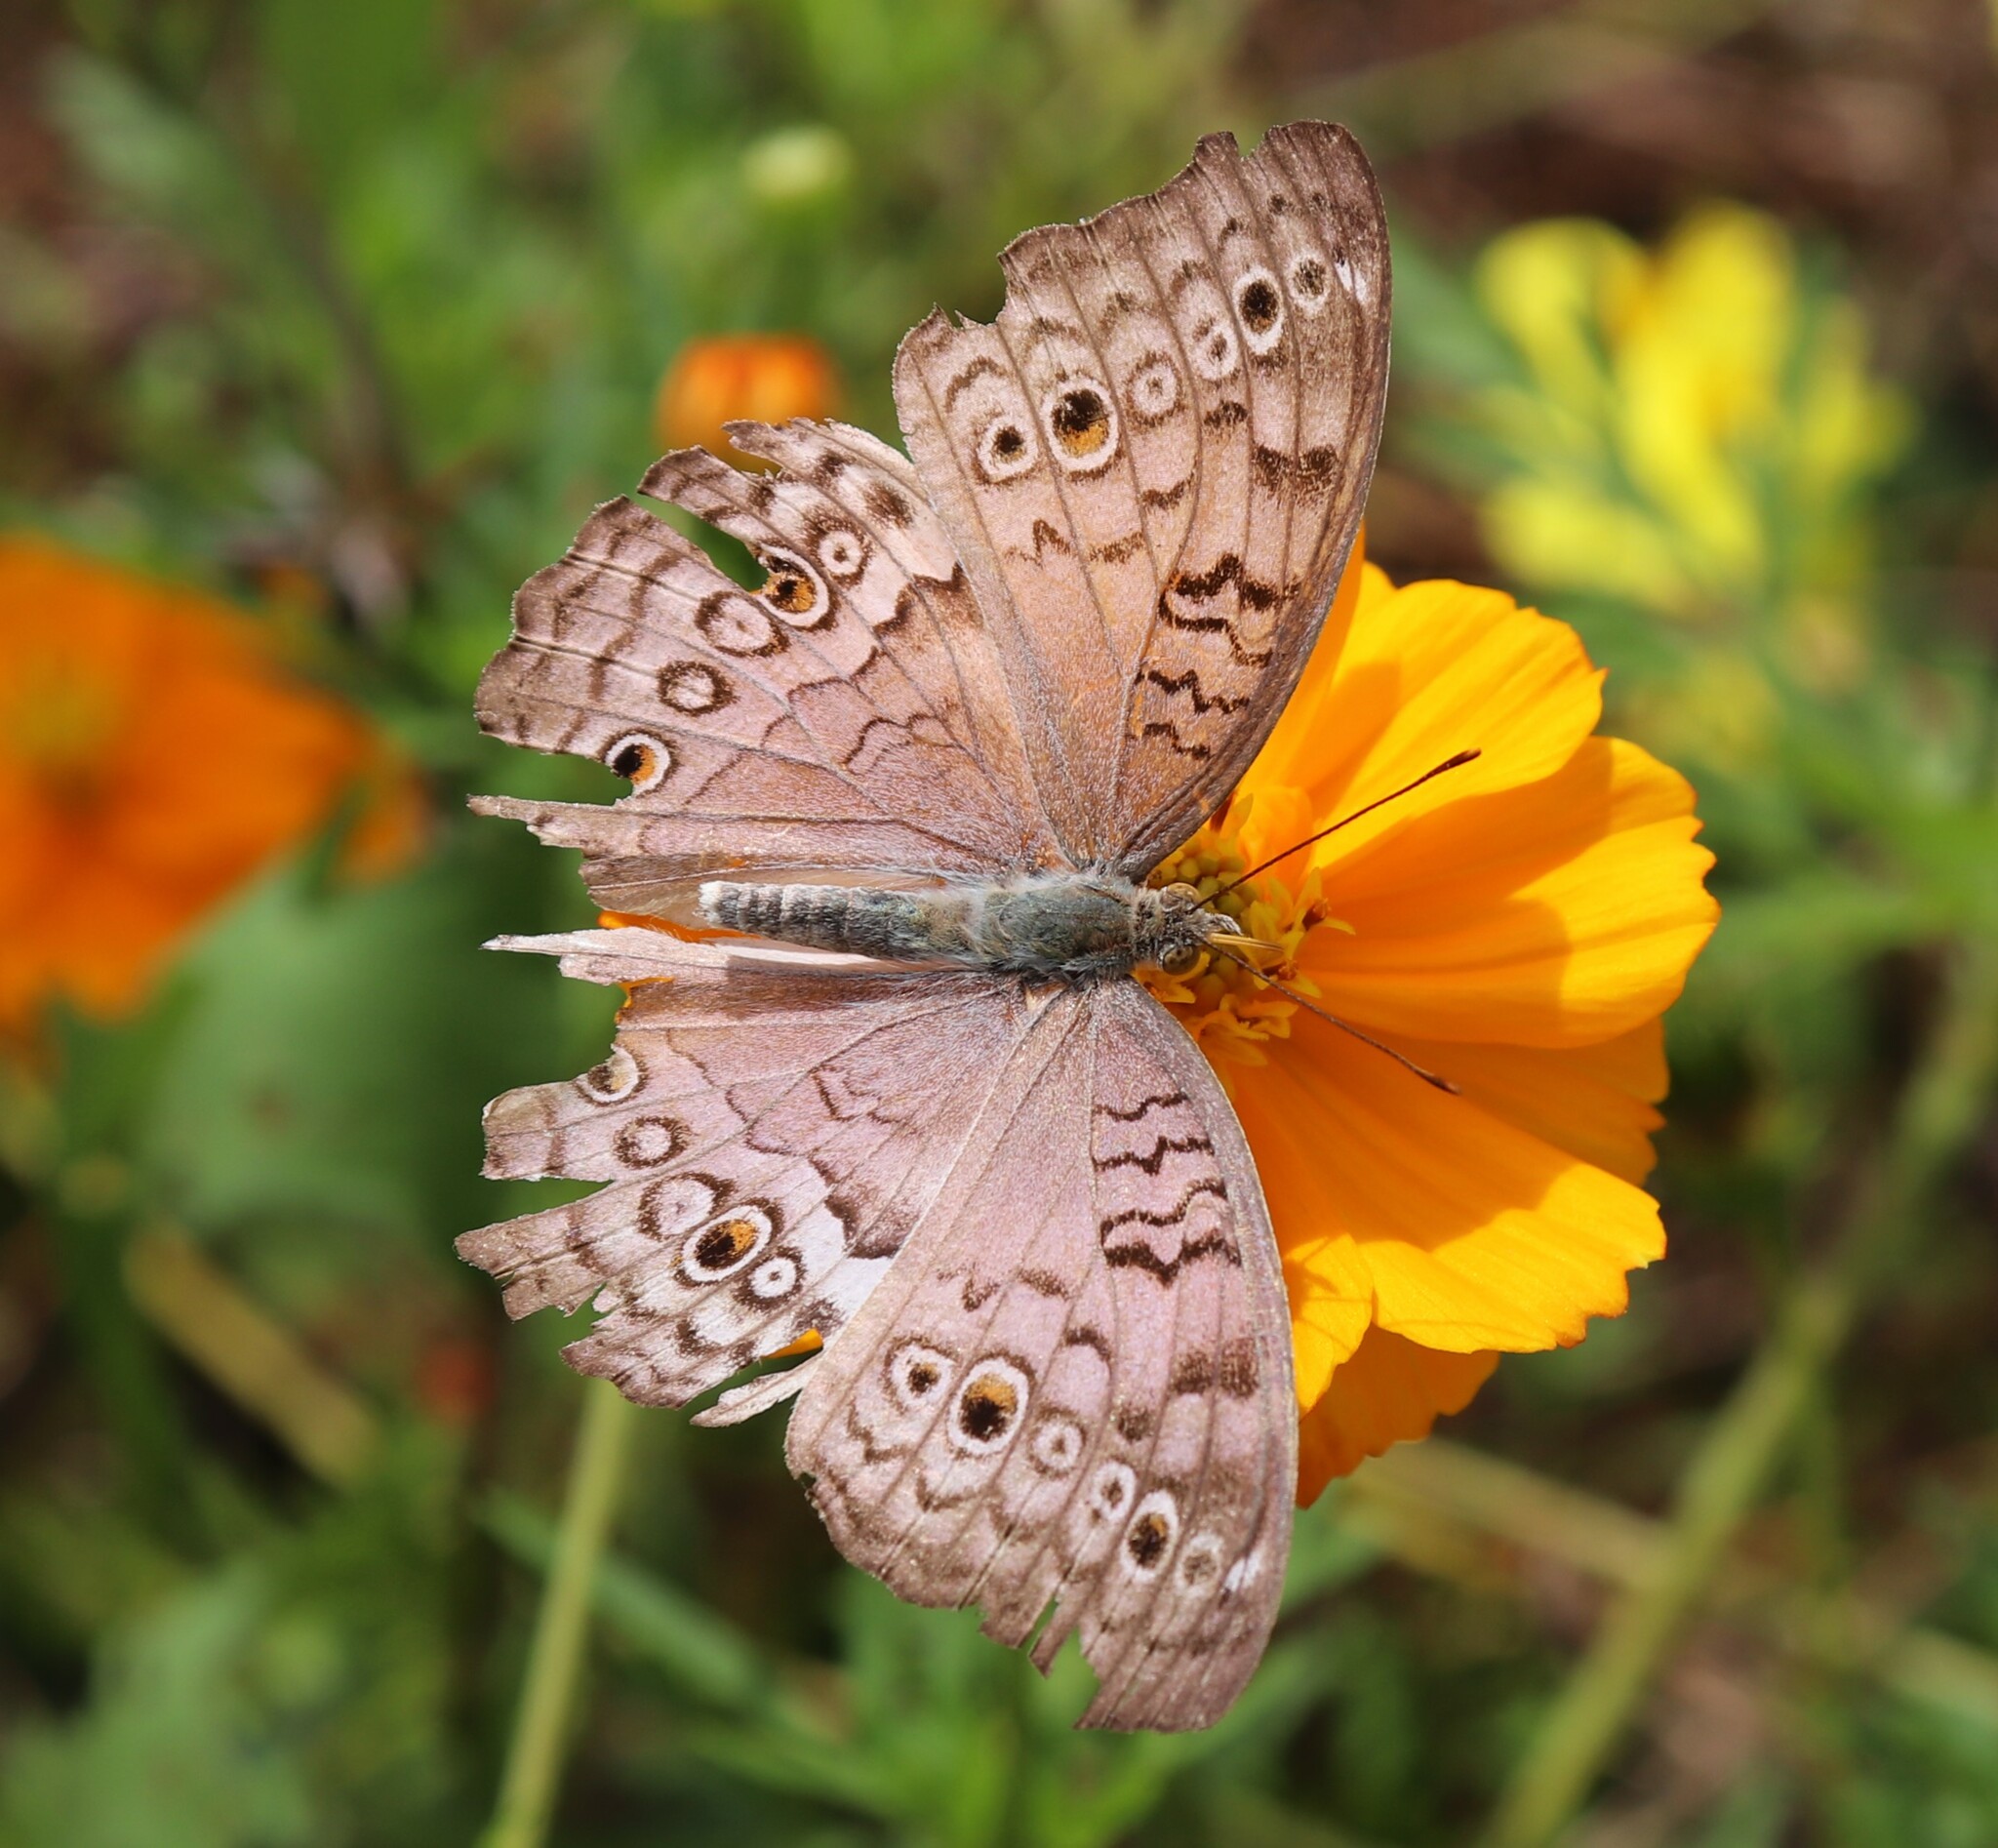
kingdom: Animalia
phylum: Arthropoda
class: Insecta
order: Lepidoptera
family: Nymphalidae
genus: Junonia
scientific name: Junonia atlites
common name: Grey pansy
